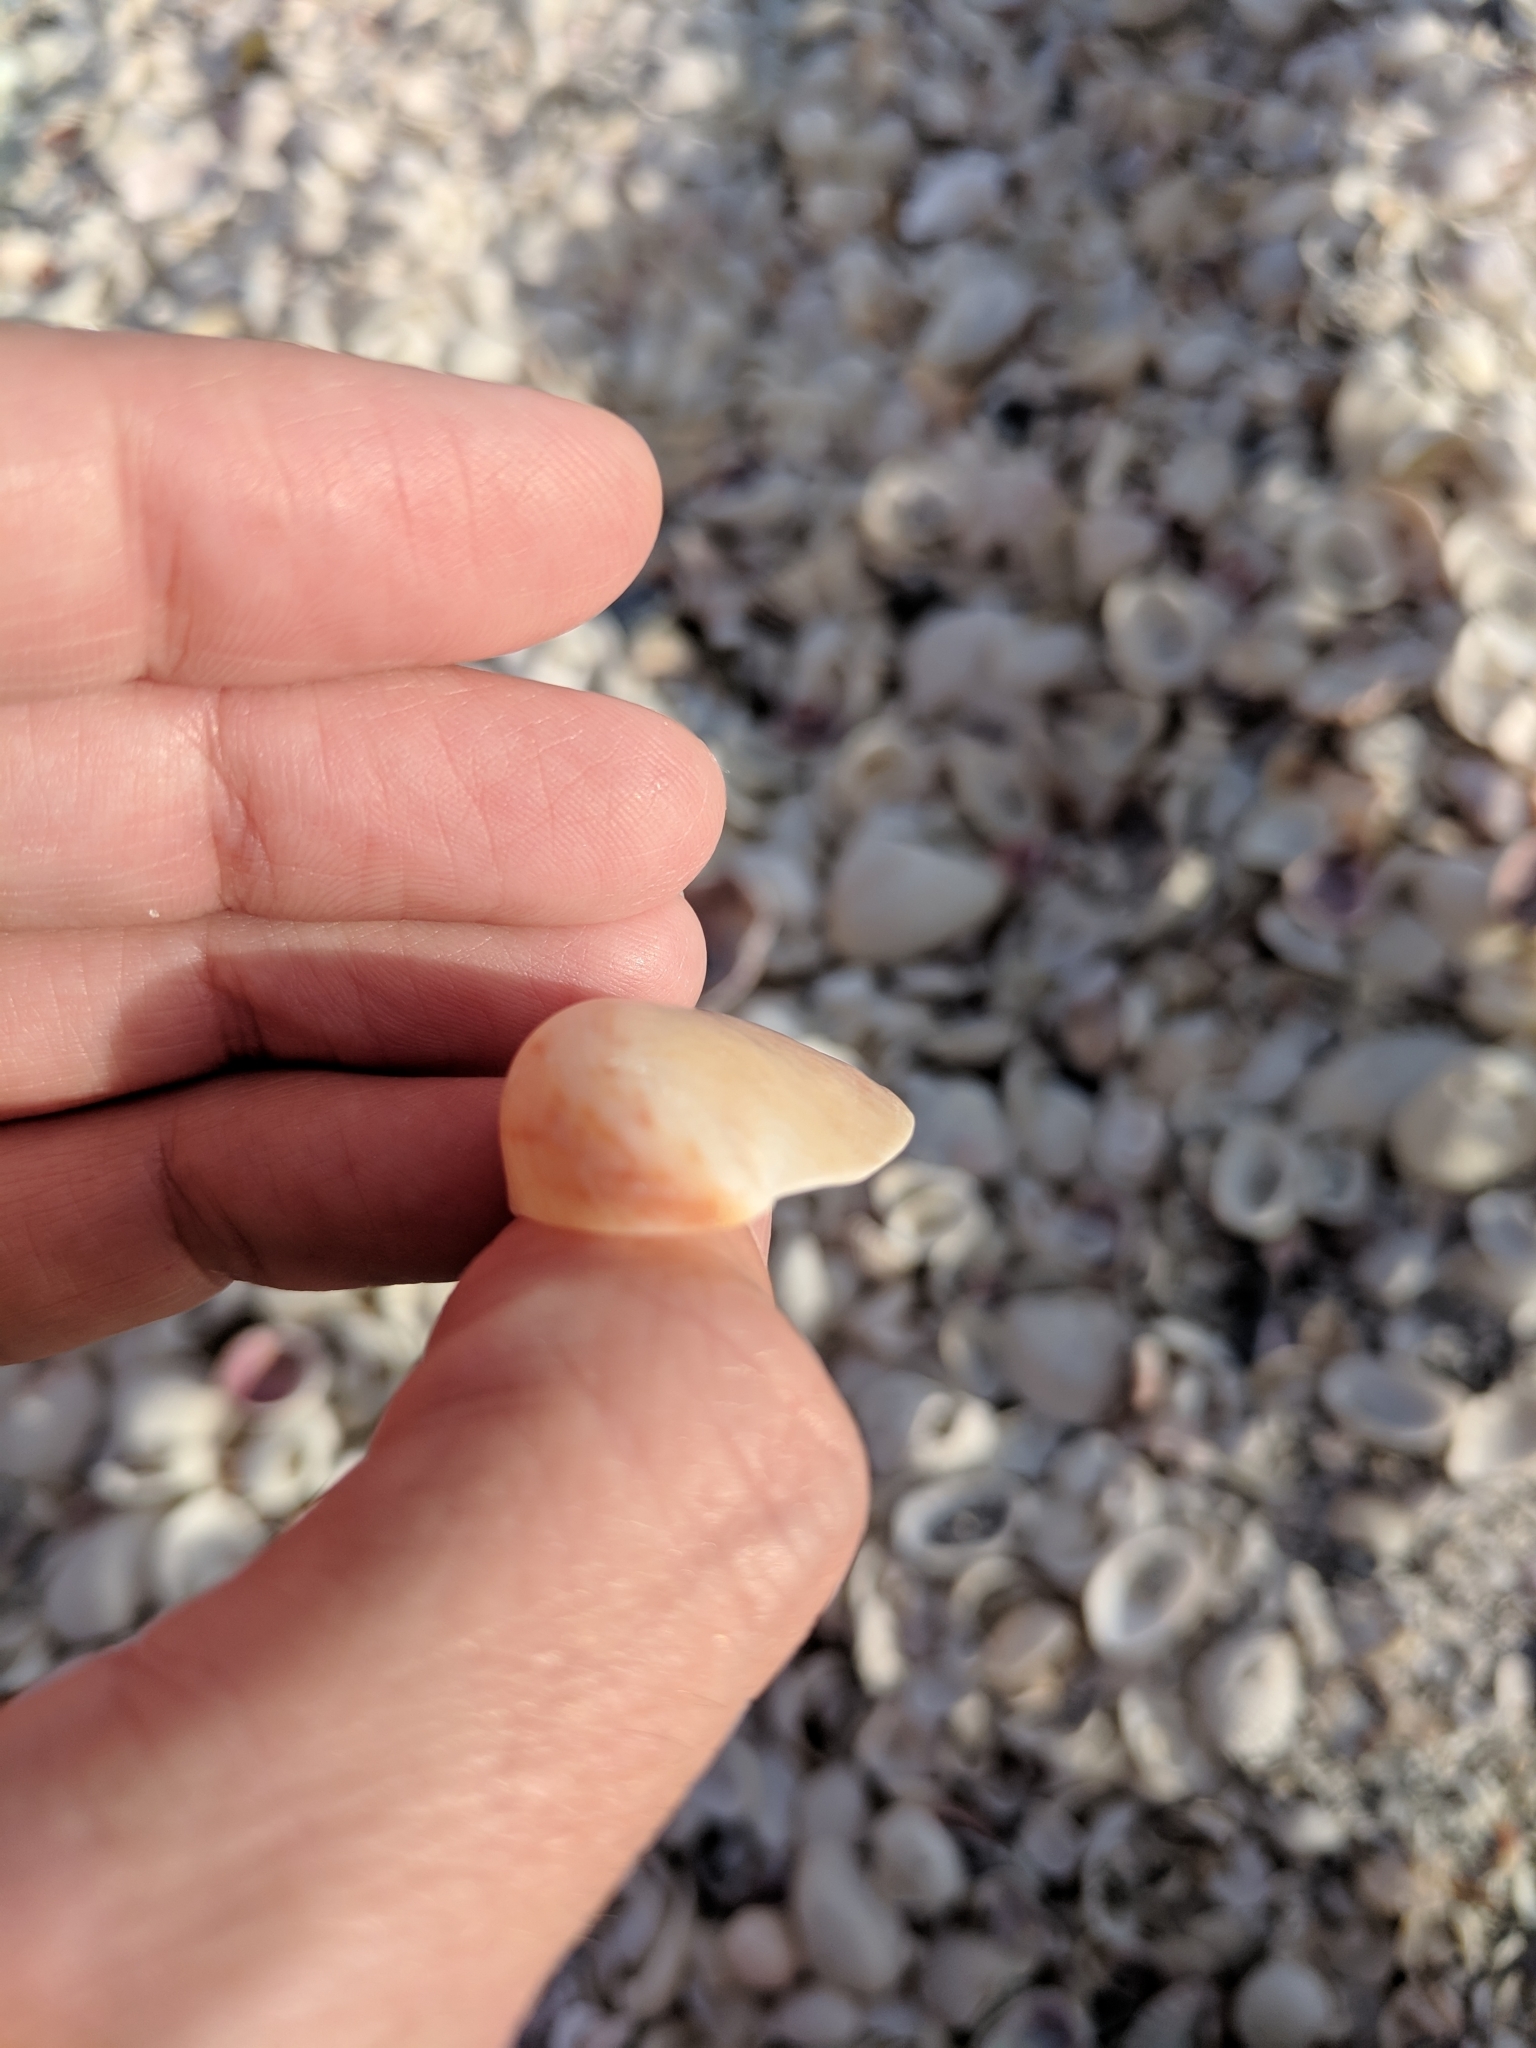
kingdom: Animalia
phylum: Mollusca
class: Gastropoda
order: Littorinimorpha
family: Calyptraeidae
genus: Crepidula
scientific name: Crepidula fornicata
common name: Slipper limpet
